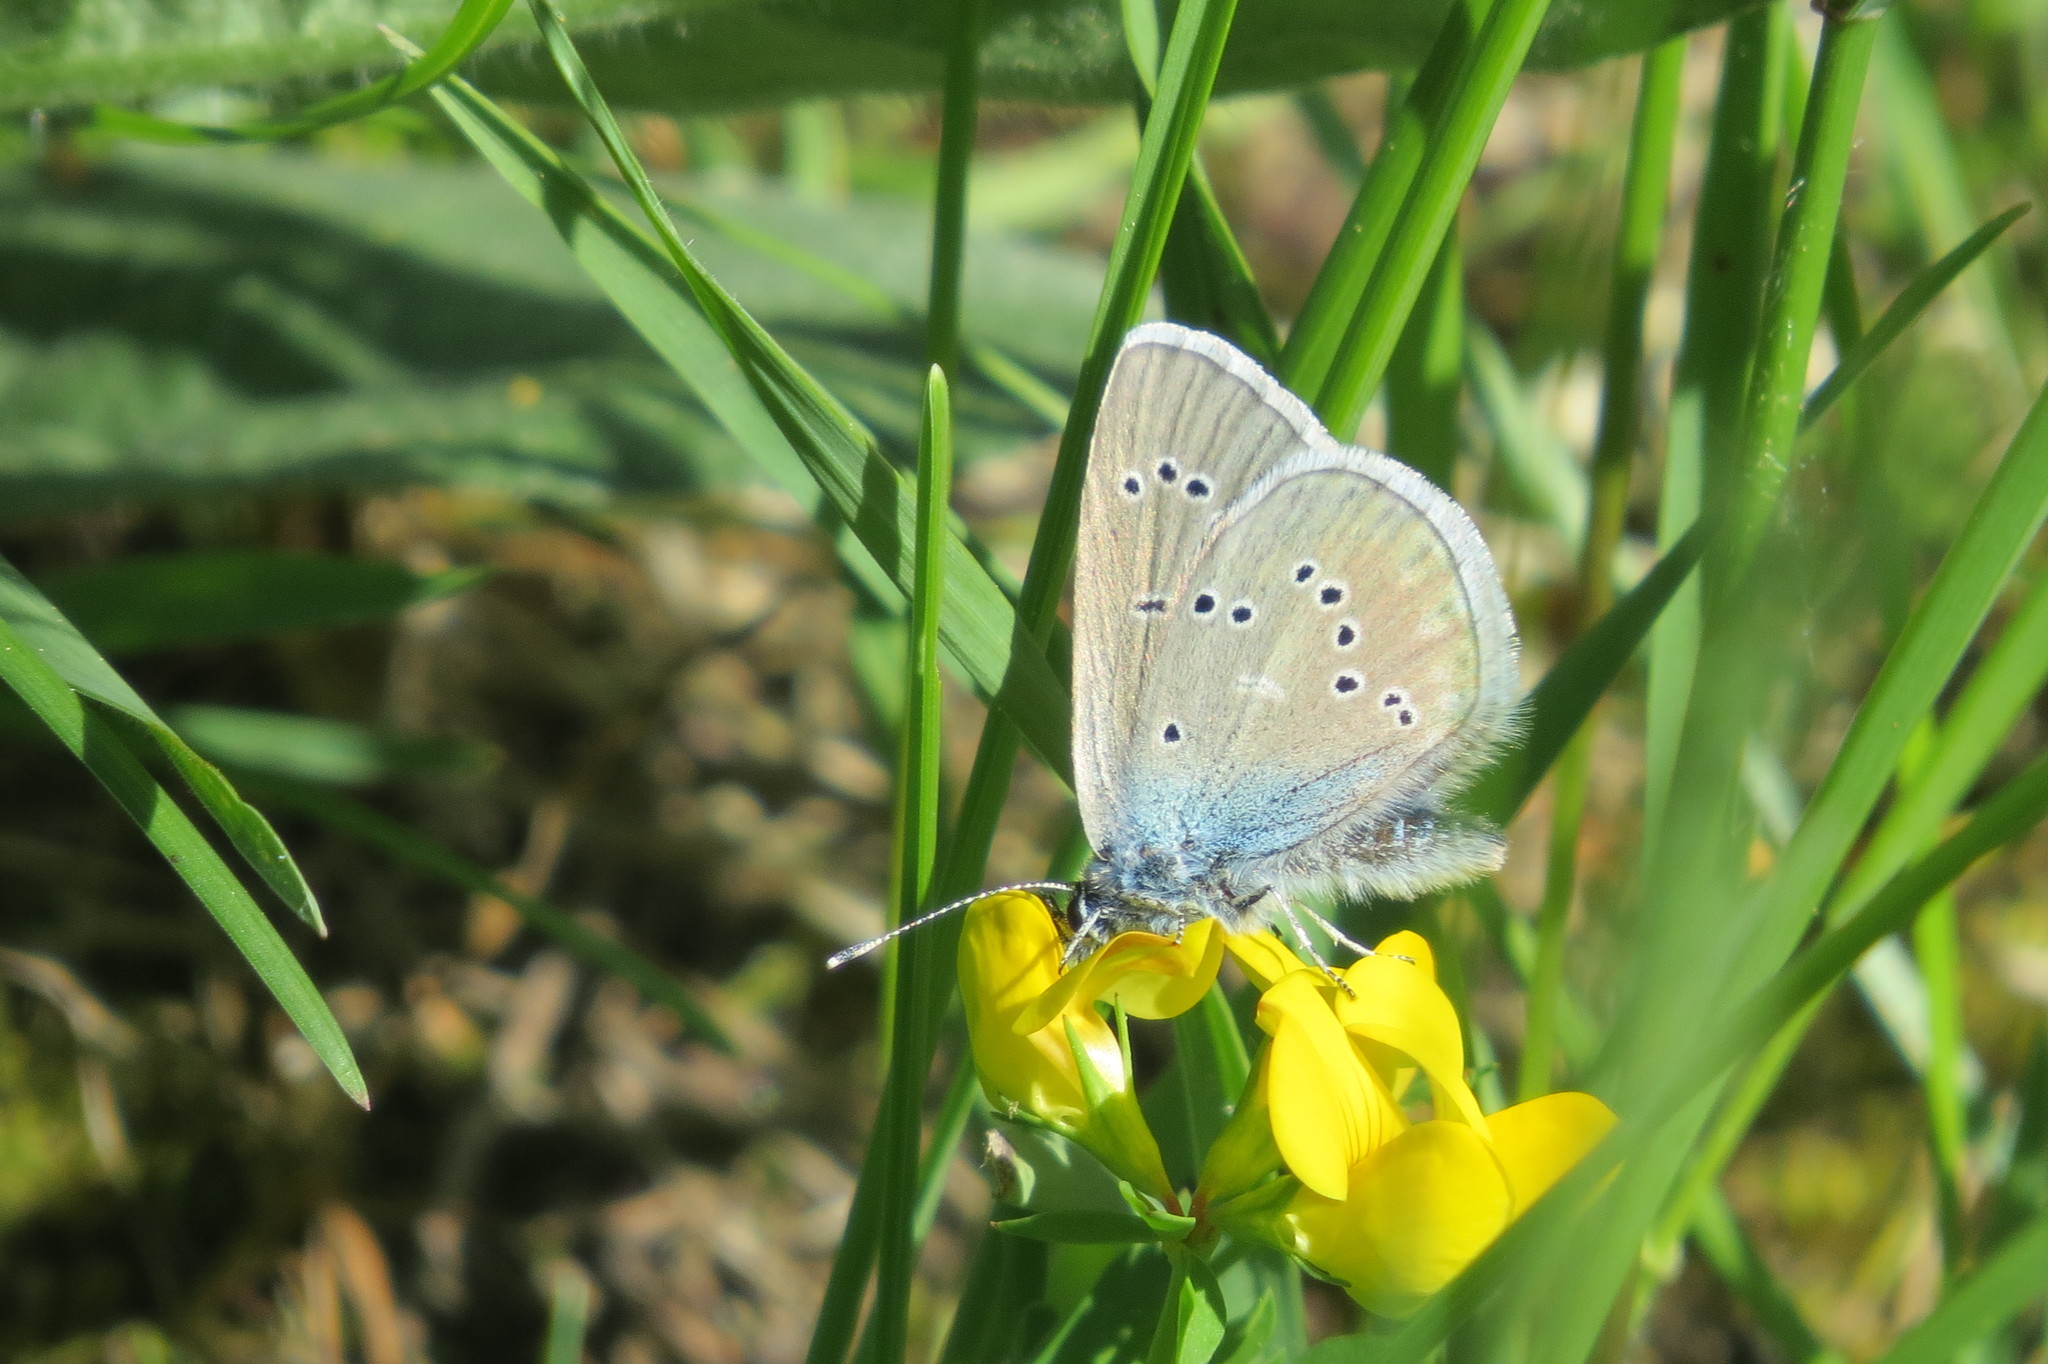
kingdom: Animalia
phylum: Arthropoda
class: Insecta
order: Lepidoptera
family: Lycaenidae
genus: Cyaniris
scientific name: Cyaniris semiargus
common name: Mazarine blue
